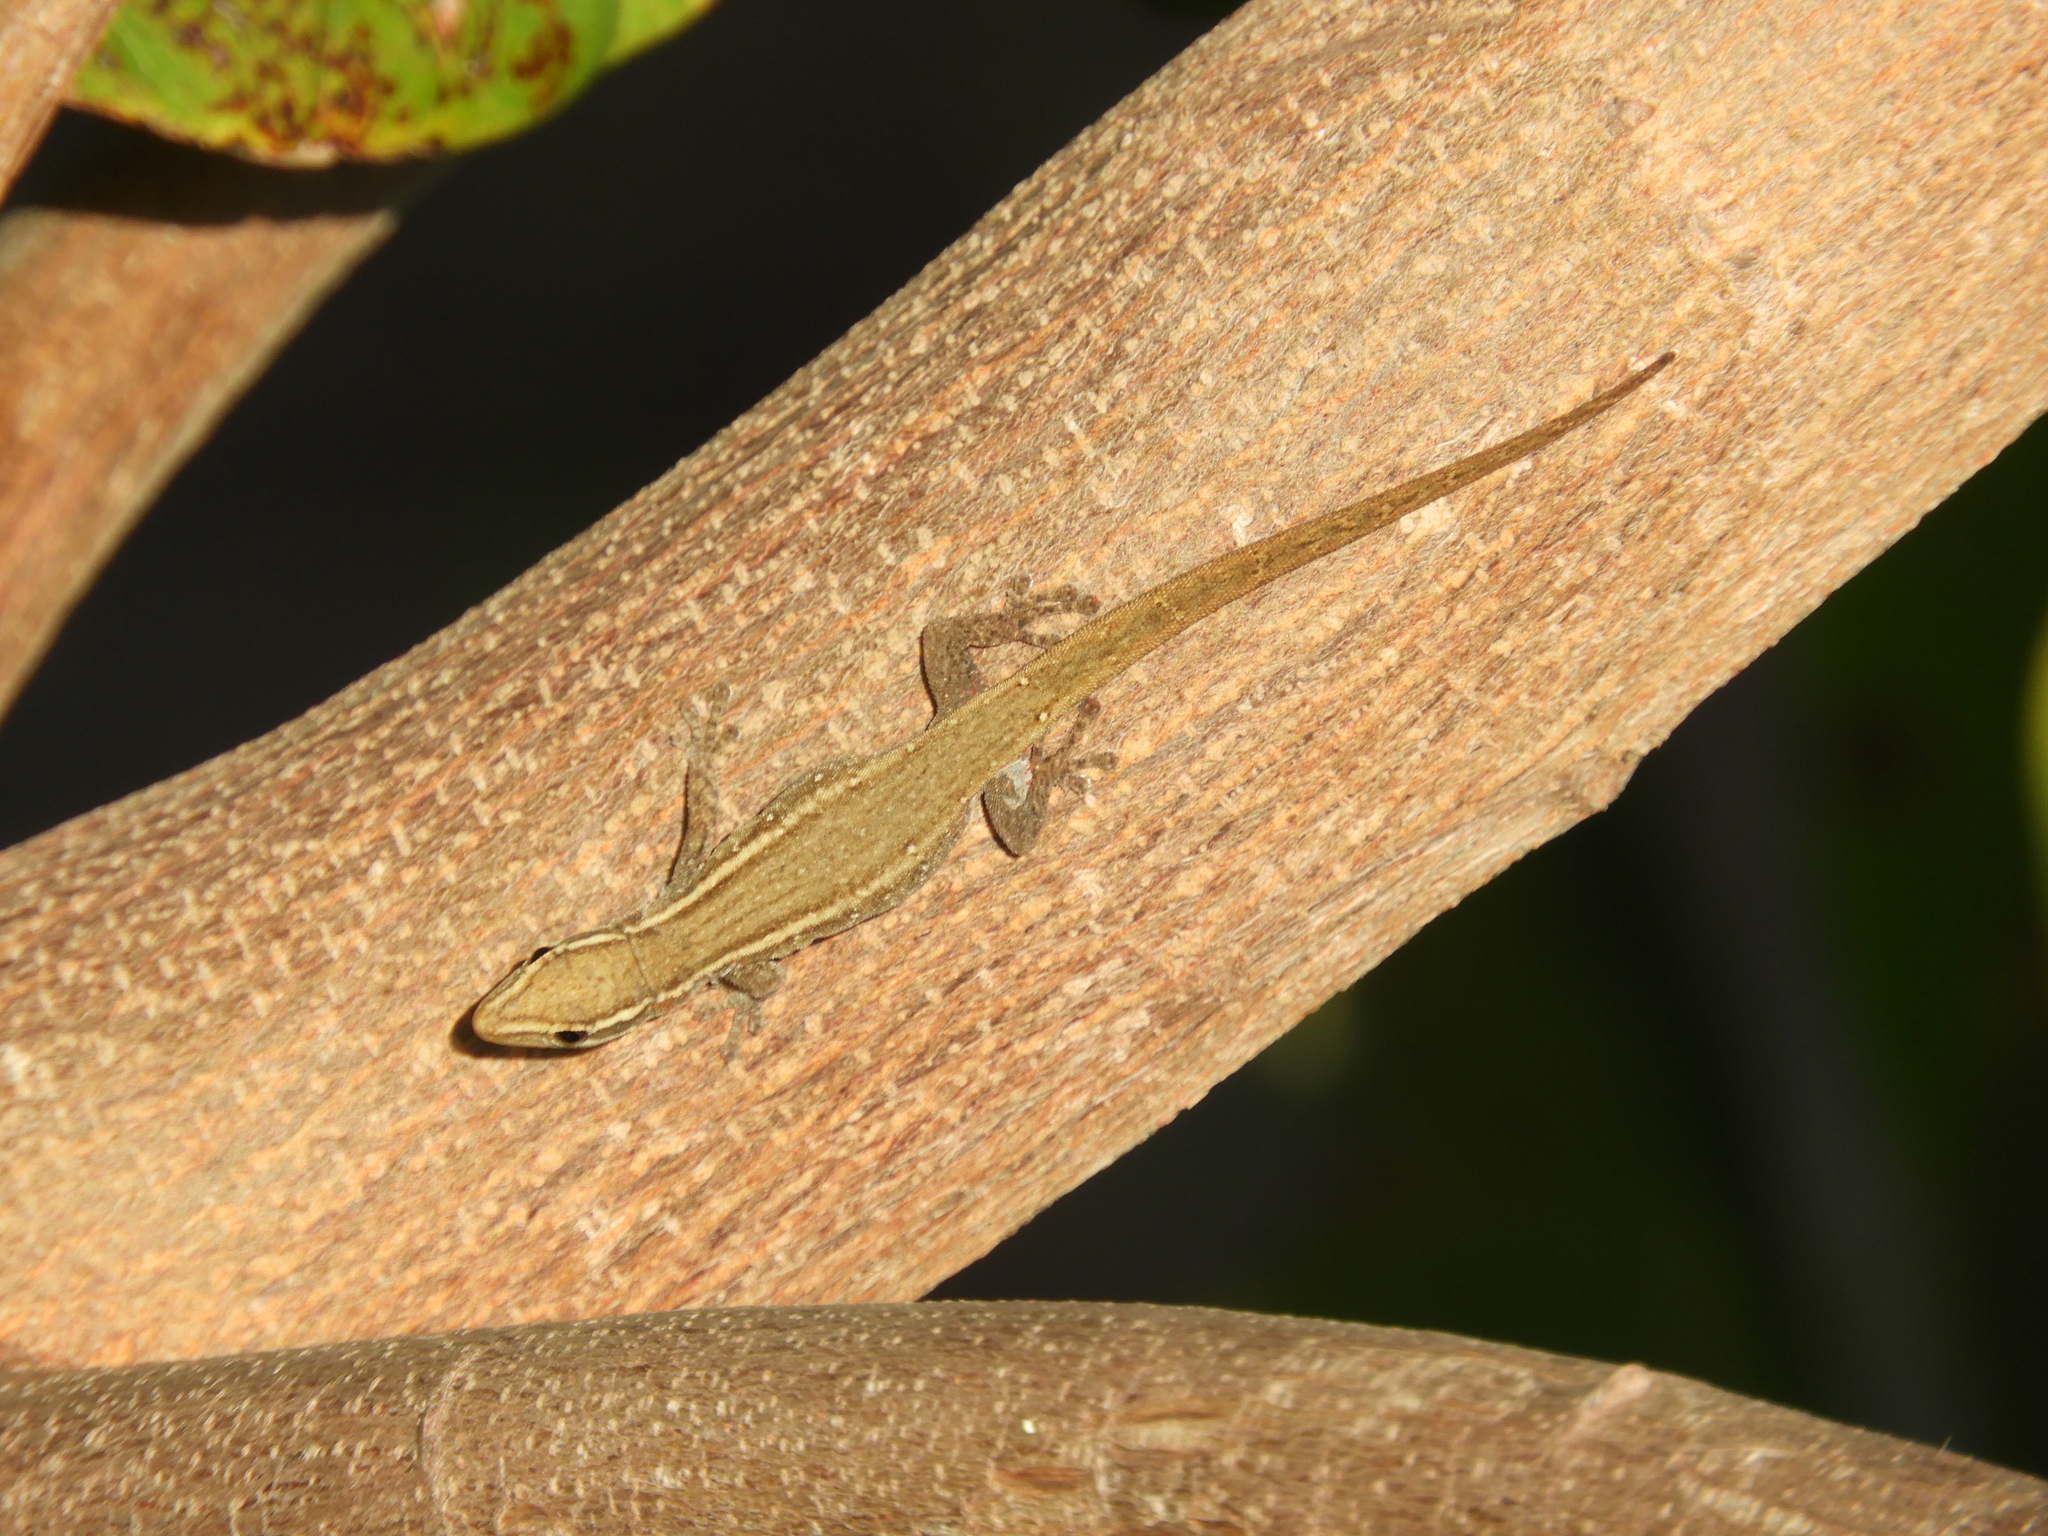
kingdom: Animalia
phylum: Chordata
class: Squamata
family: Gekkonidae
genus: Lygodactylus
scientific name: Lygodactylus capensis
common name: Cape dwarf gecko
